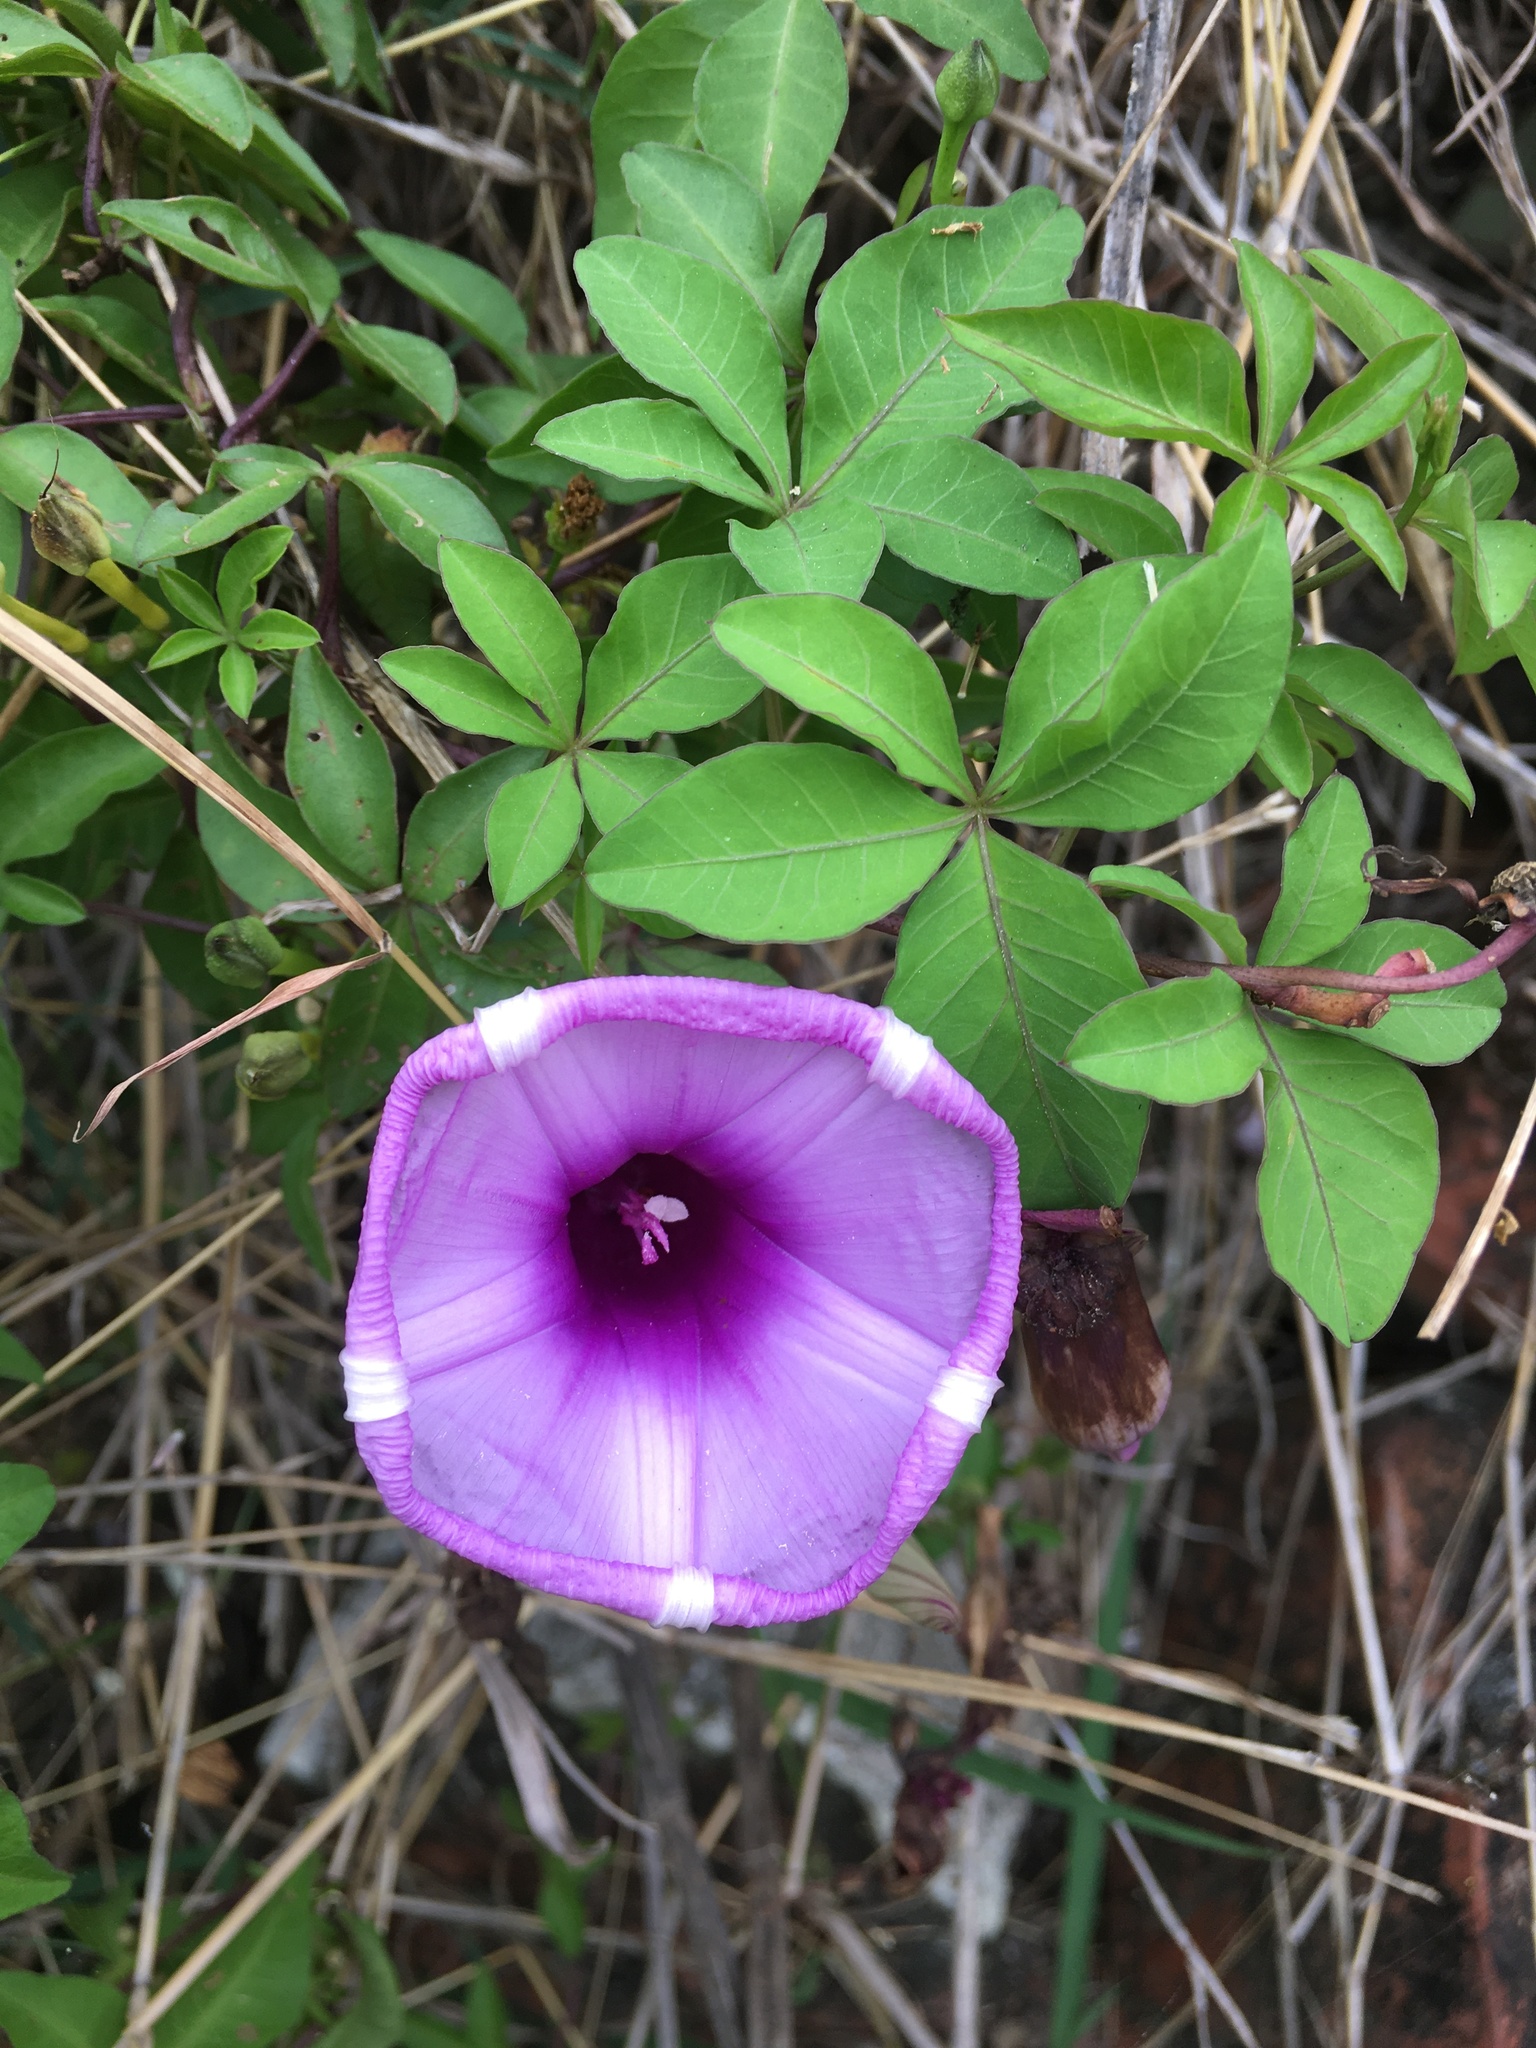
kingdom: Plantae
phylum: Tracheophyta
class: Magnoliopsida
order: Solanales
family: Convolvulaceae
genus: Ipomoea
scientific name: Ipomoea cairica
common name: Mile a minute vine
